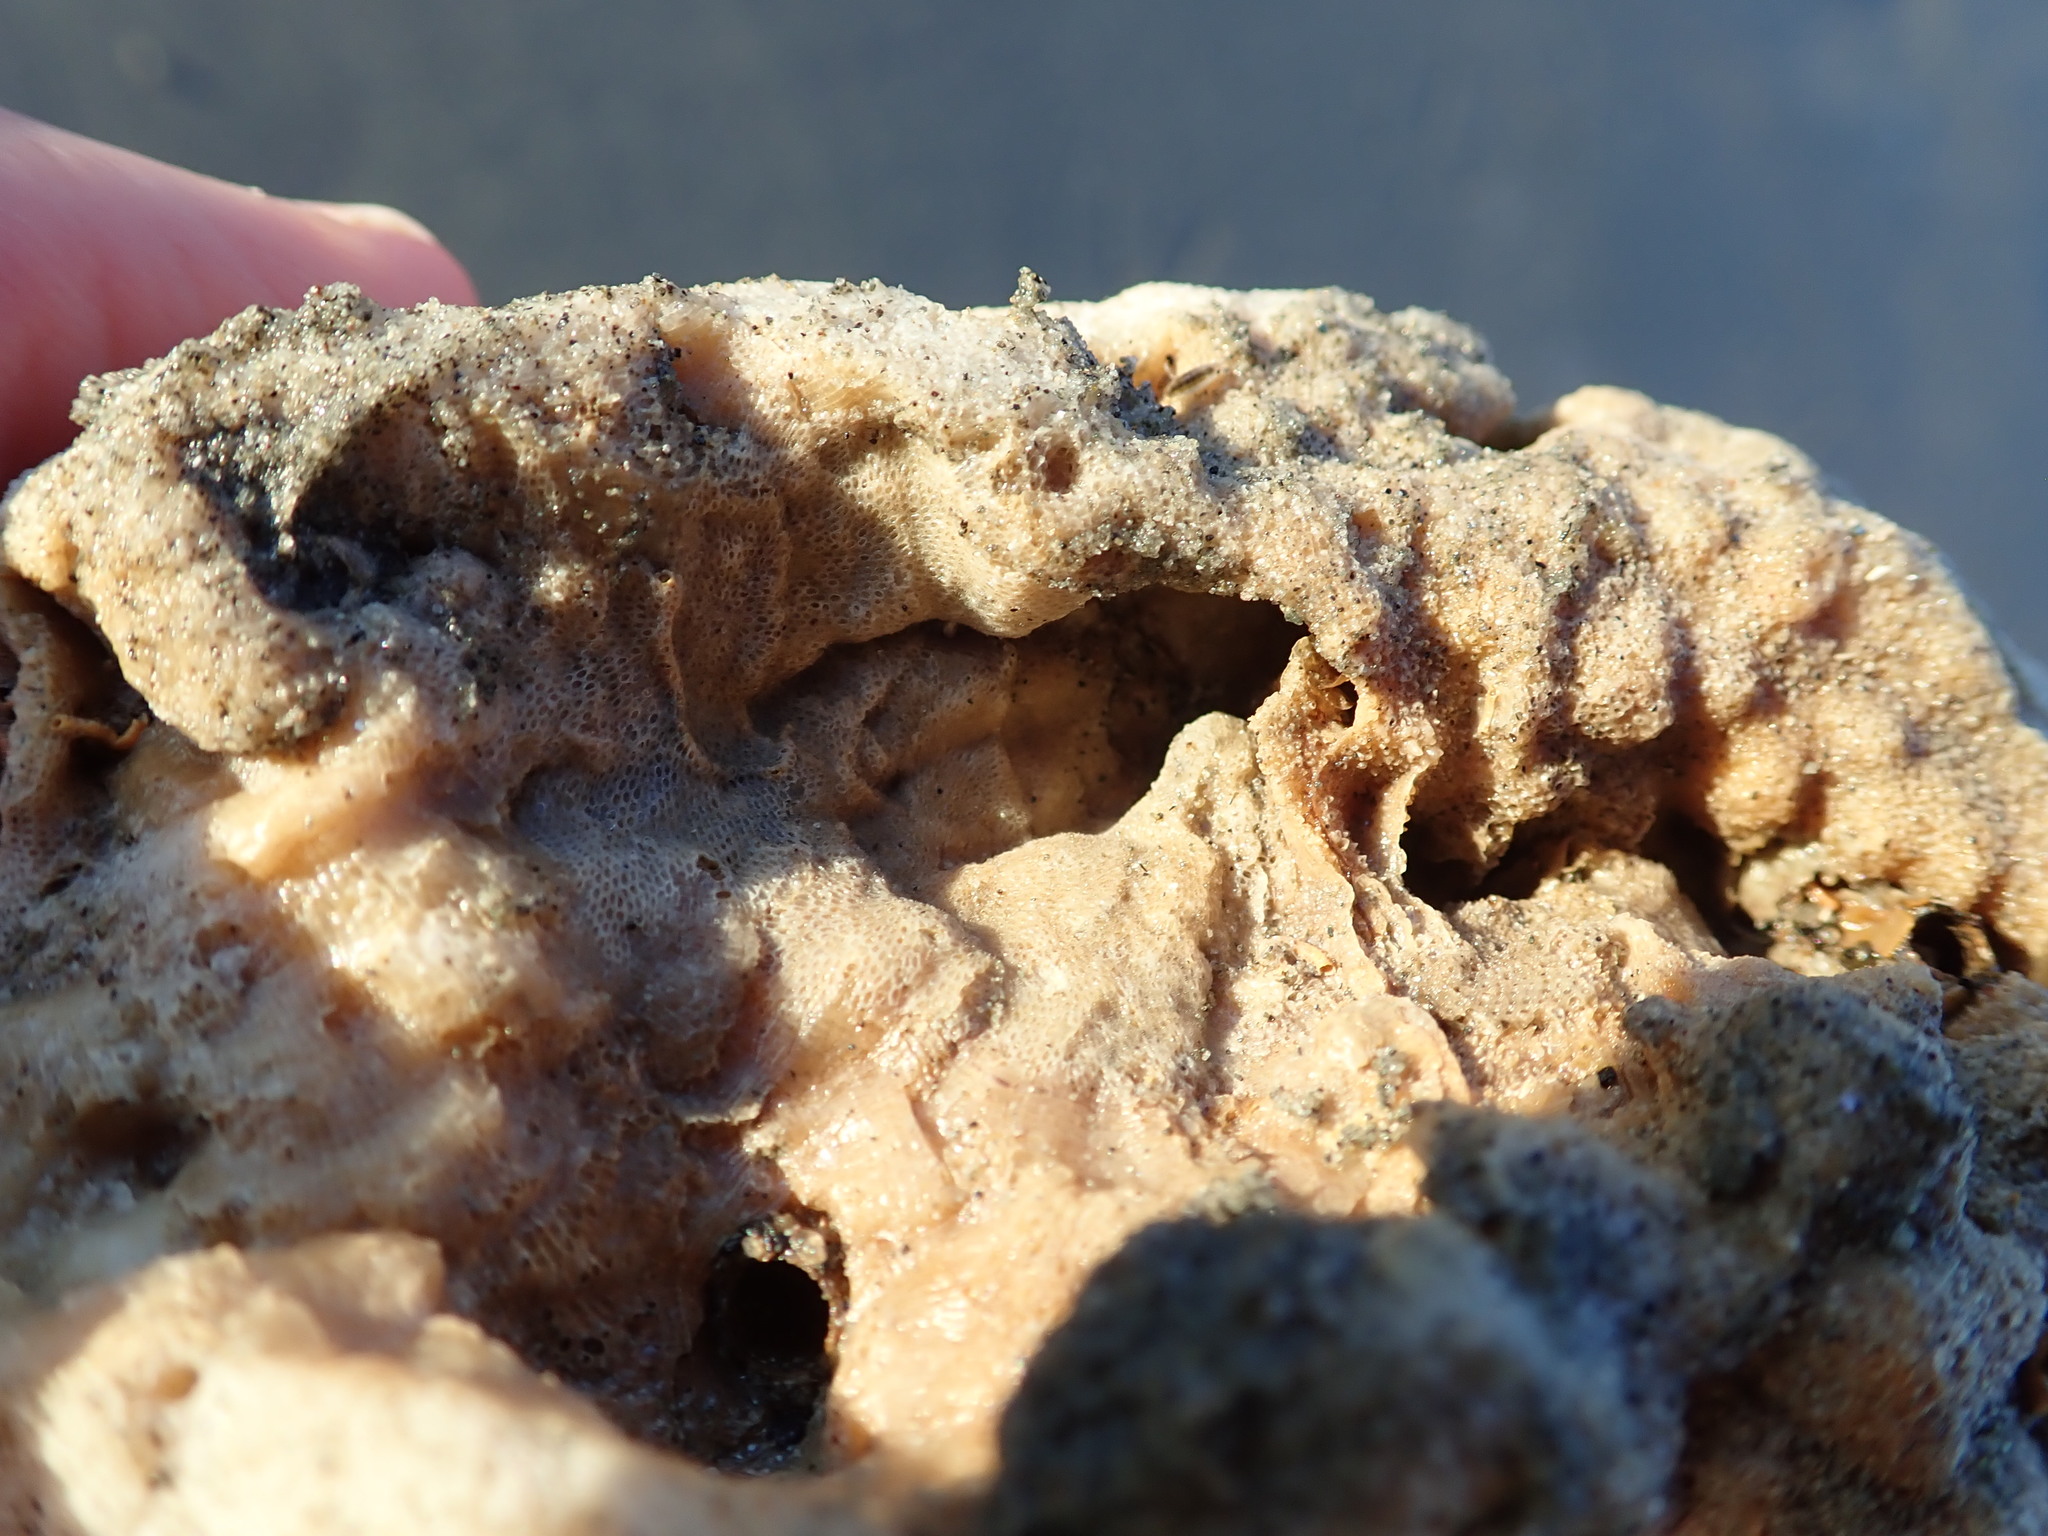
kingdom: Animalia
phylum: Bryozoa
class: Gymnolaemata
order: Cheilostomatida
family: Celleporidae
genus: Celleporaria
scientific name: Celleporaria agglutinans
